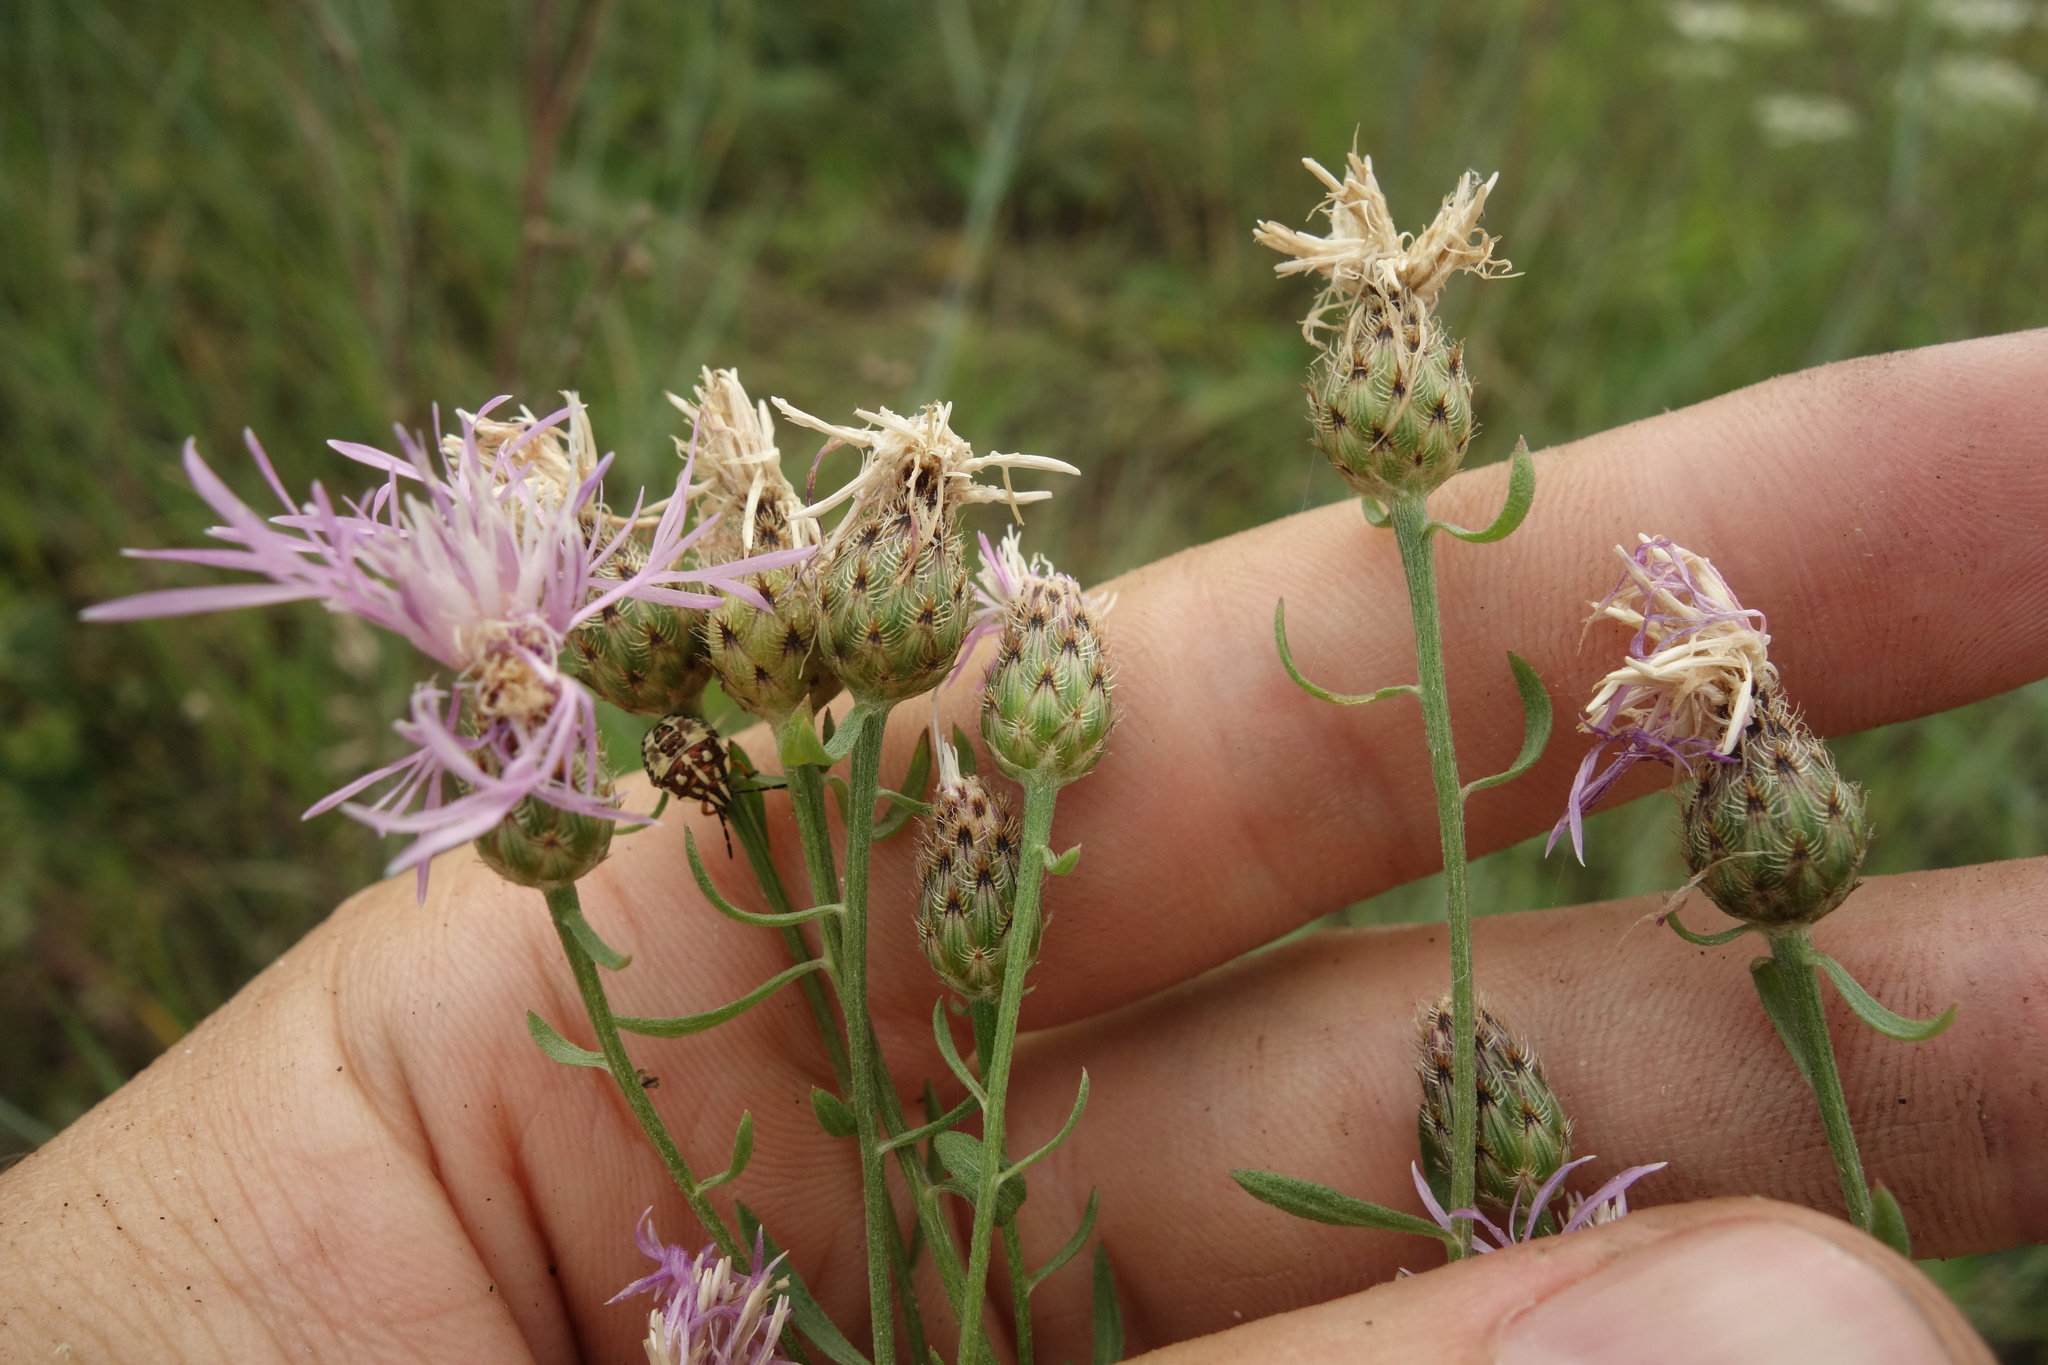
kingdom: Plantae
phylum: Tracheophyta
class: Magnoliopsida
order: Asterales
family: Asteraceae
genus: Centaurea
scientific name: Centaurea stoebe
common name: Spotted knapweed
